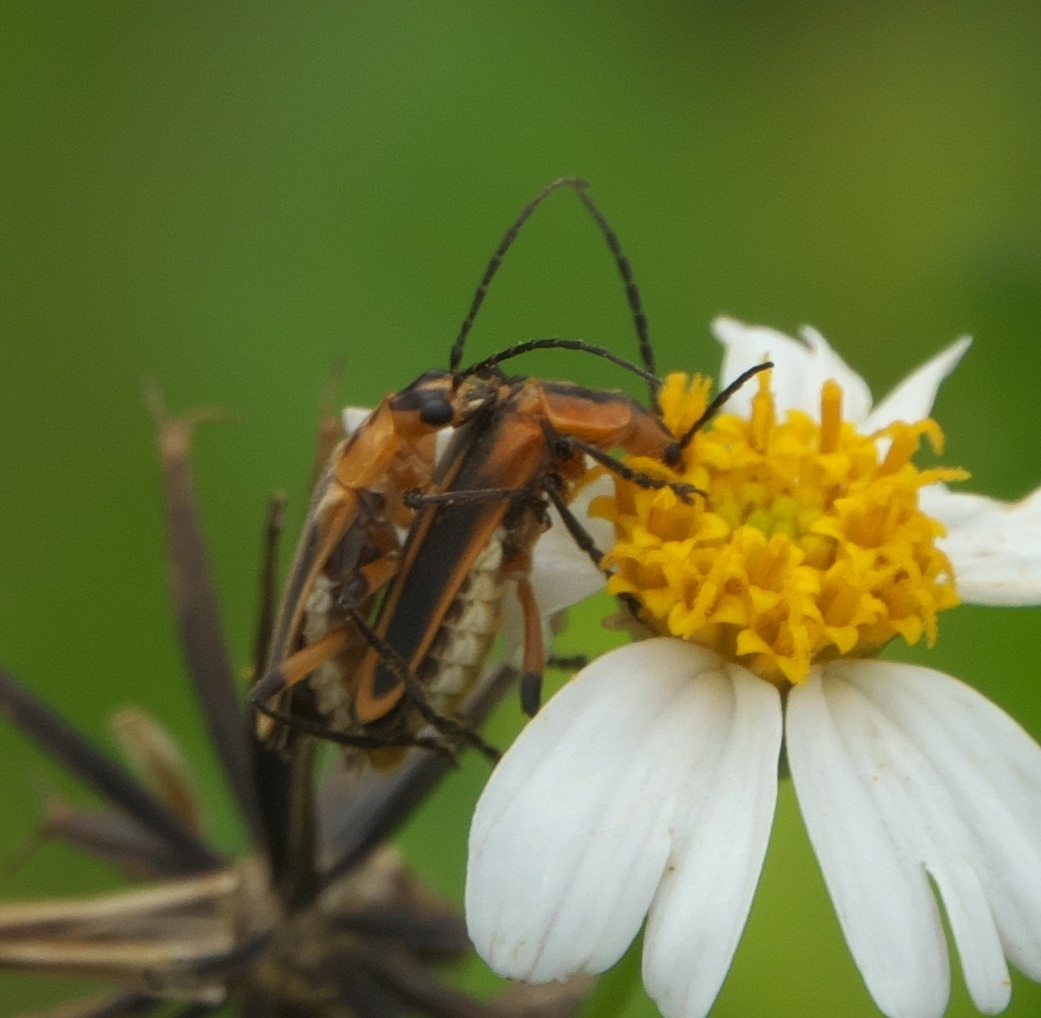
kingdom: Animalia
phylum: Arthropoda
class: Insecta
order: Coleoptera
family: Cantharidae
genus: Chauliognathus
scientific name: Chauliognathus marginatus
